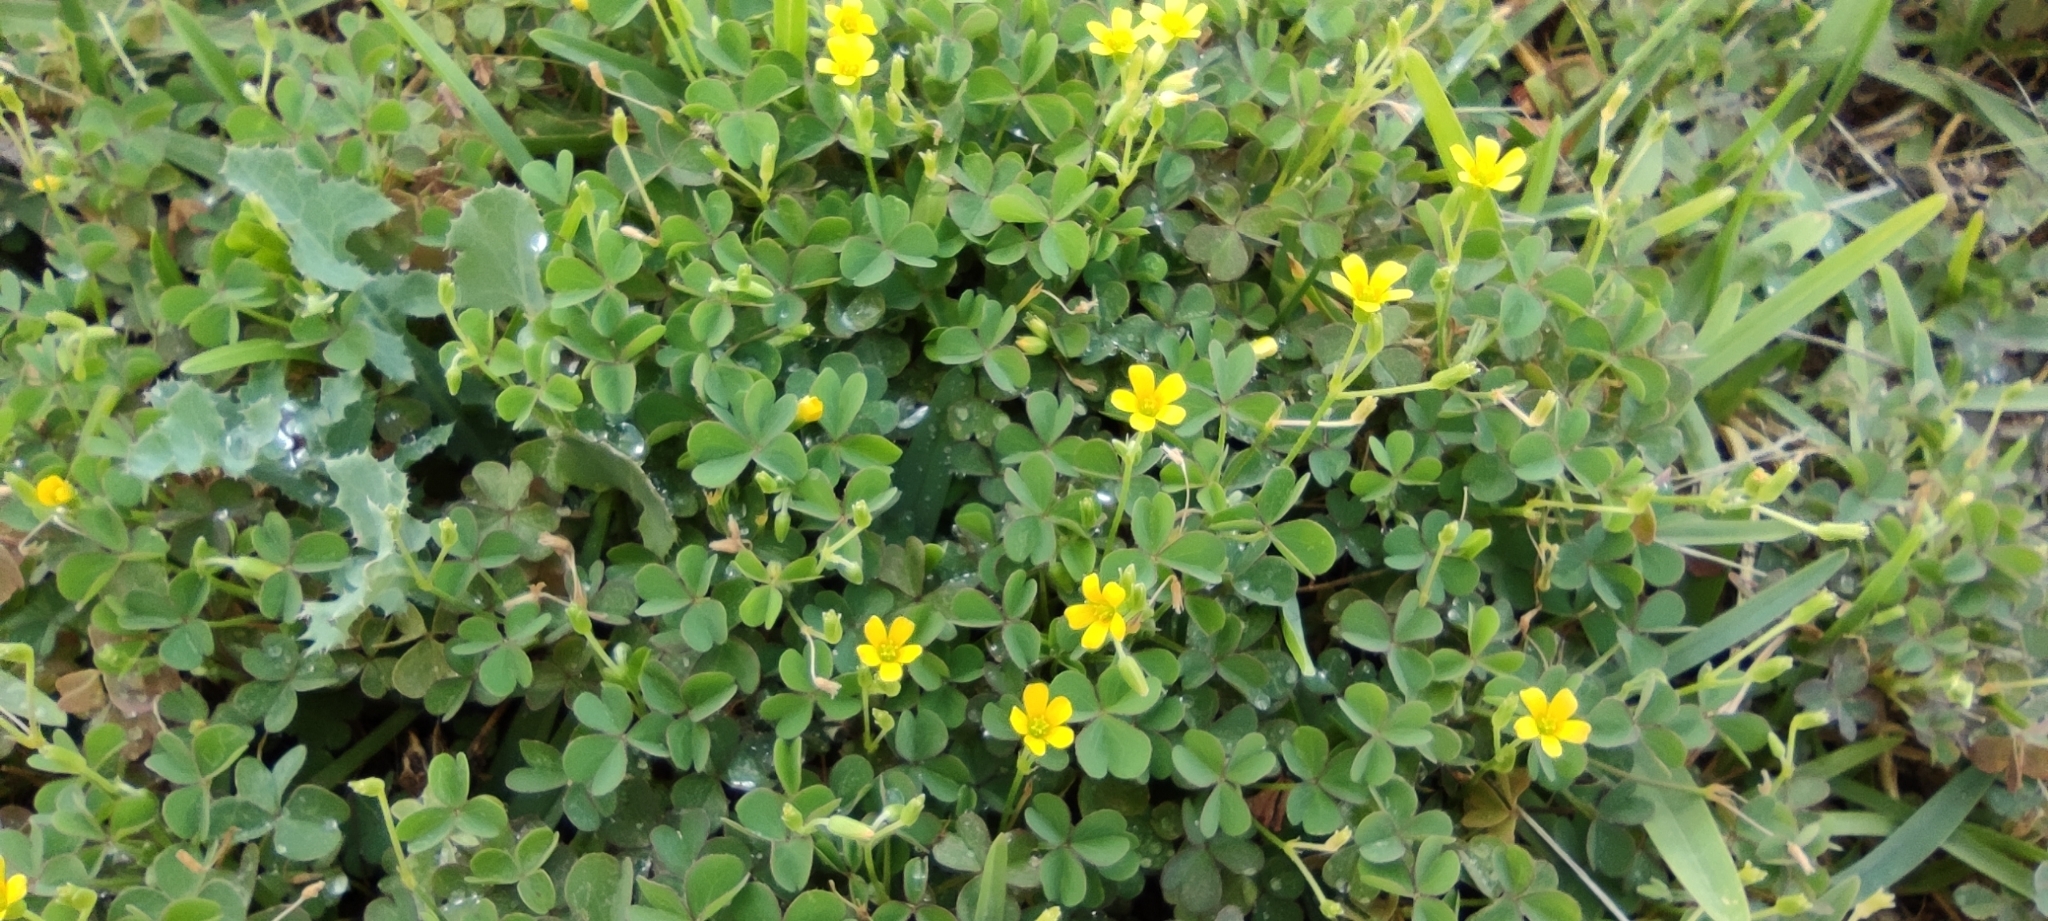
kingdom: Plantae
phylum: Tracheophyta
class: Magnoliopsida
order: Oxalidales
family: Oxalidaceae
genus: Oxalis
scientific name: Oxalis corniculata
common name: Procumbent yellow-sorrel
